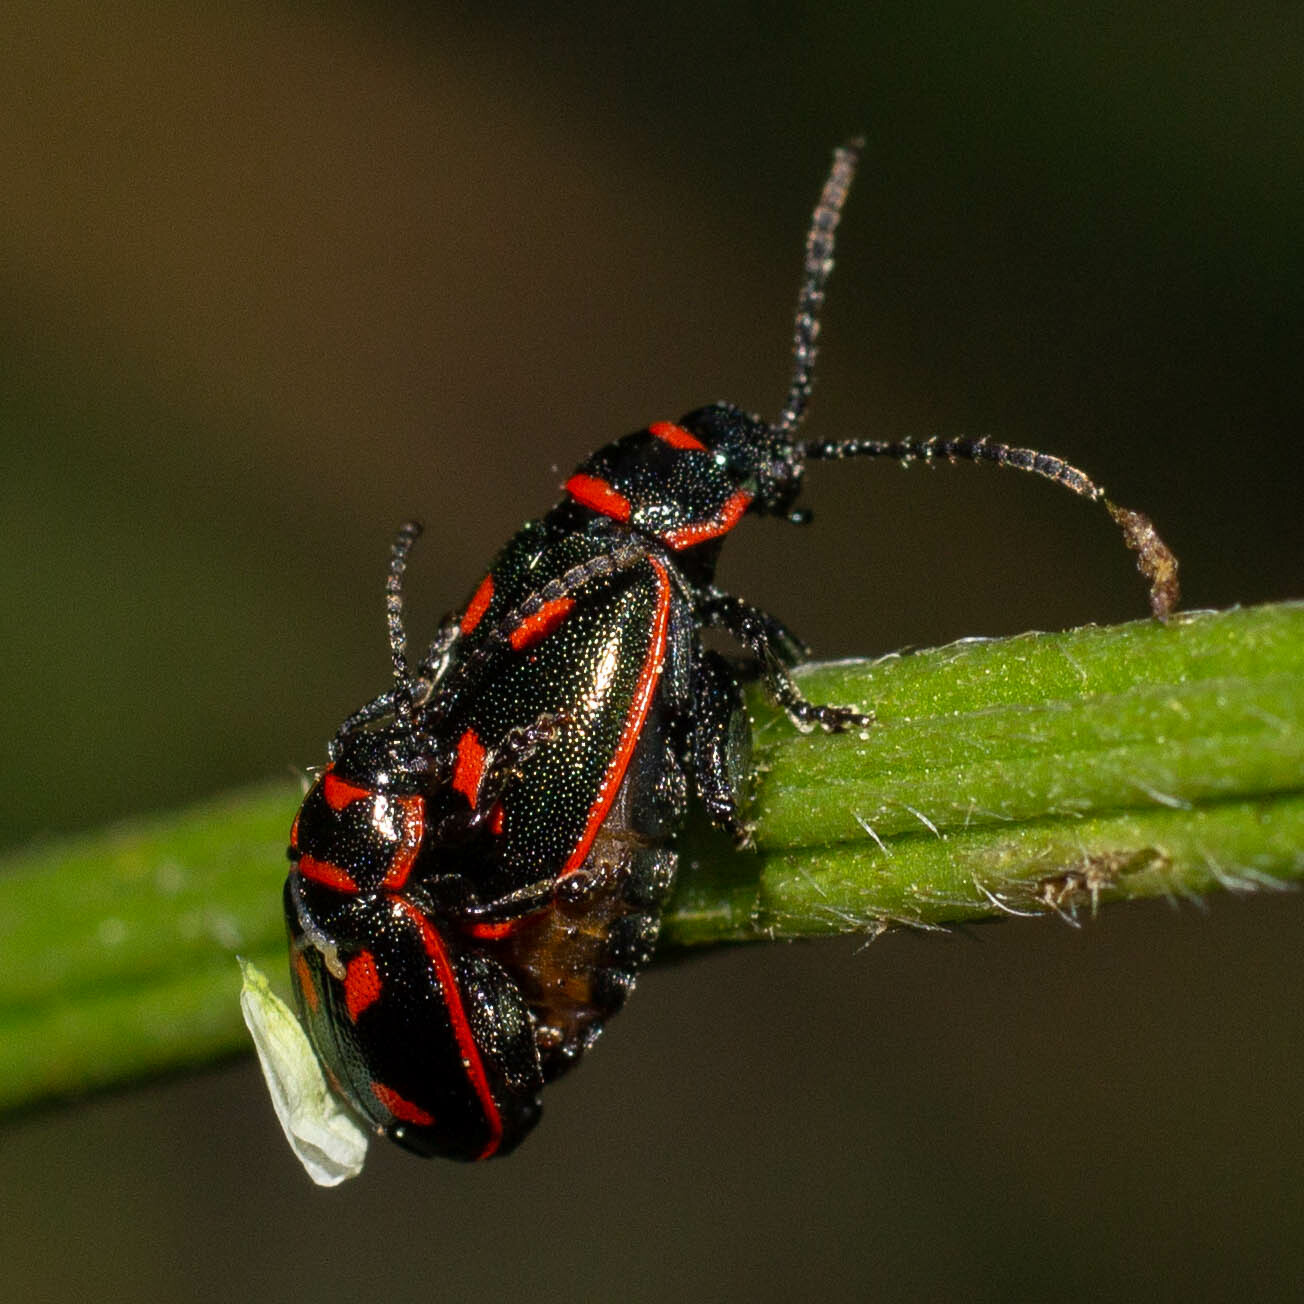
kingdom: Animalia
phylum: Arthropoda
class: Insecta
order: Coleoptera
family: Chrysomelidae
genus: Oedionychis
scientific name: Oedionychis cincta
